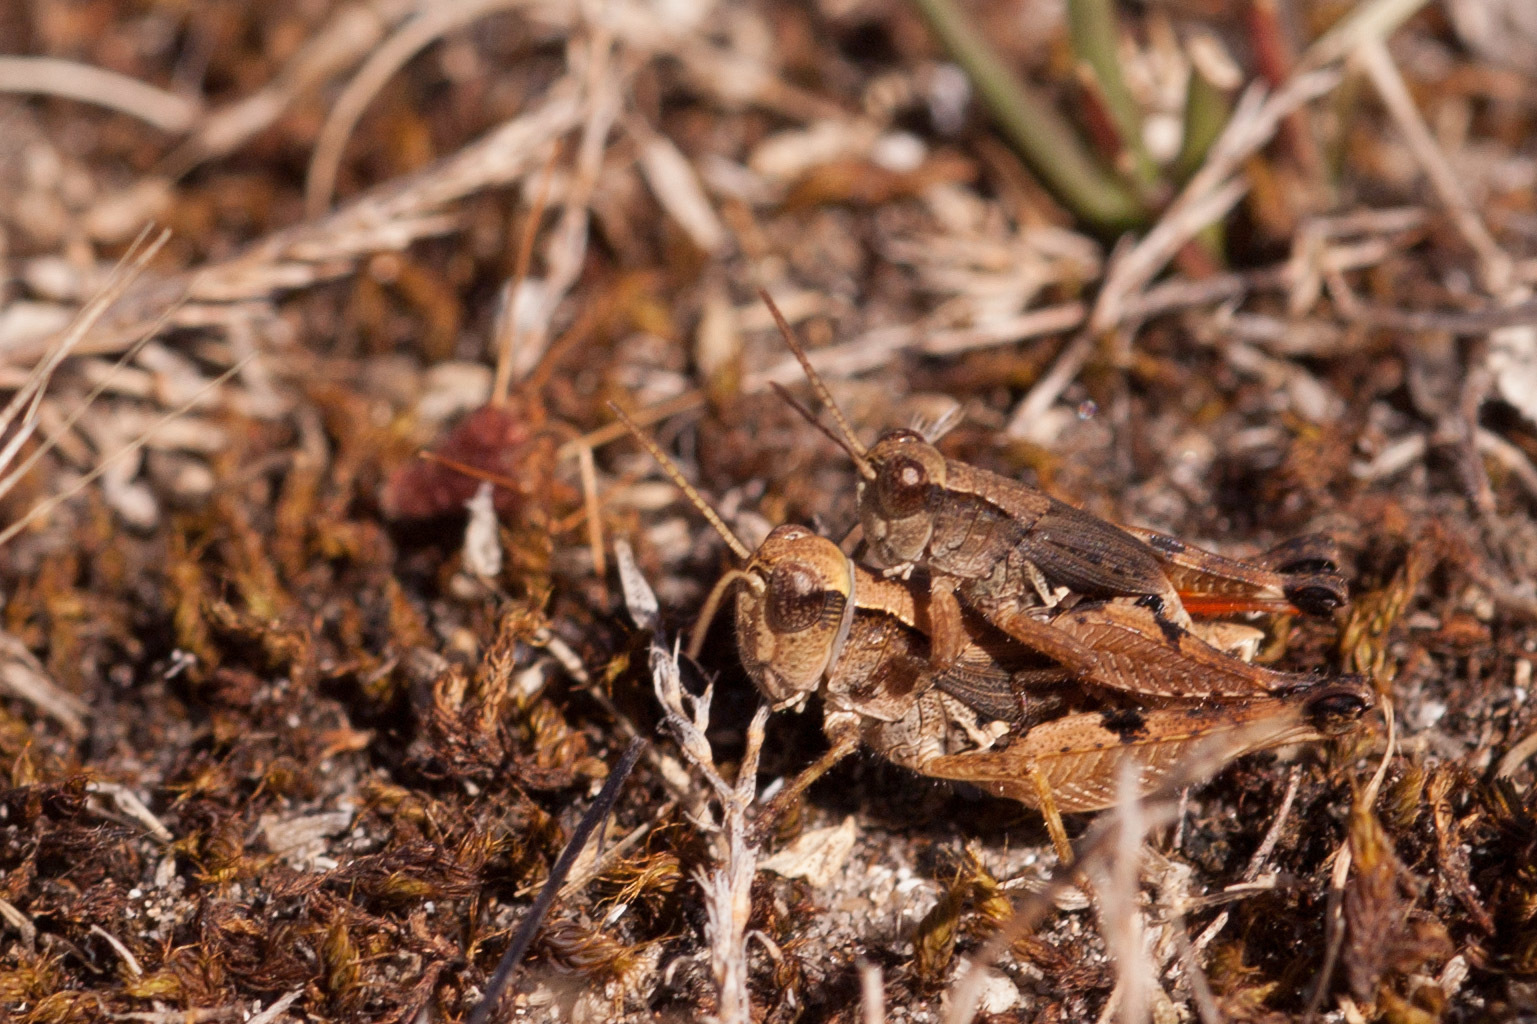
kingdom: Animalia
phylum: Arthropoda
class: Insecta
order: Orthoptera
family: Acrididae
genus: Phaulacridium
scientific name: Phaulacridium vittatum
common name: Wingless grasshopper
